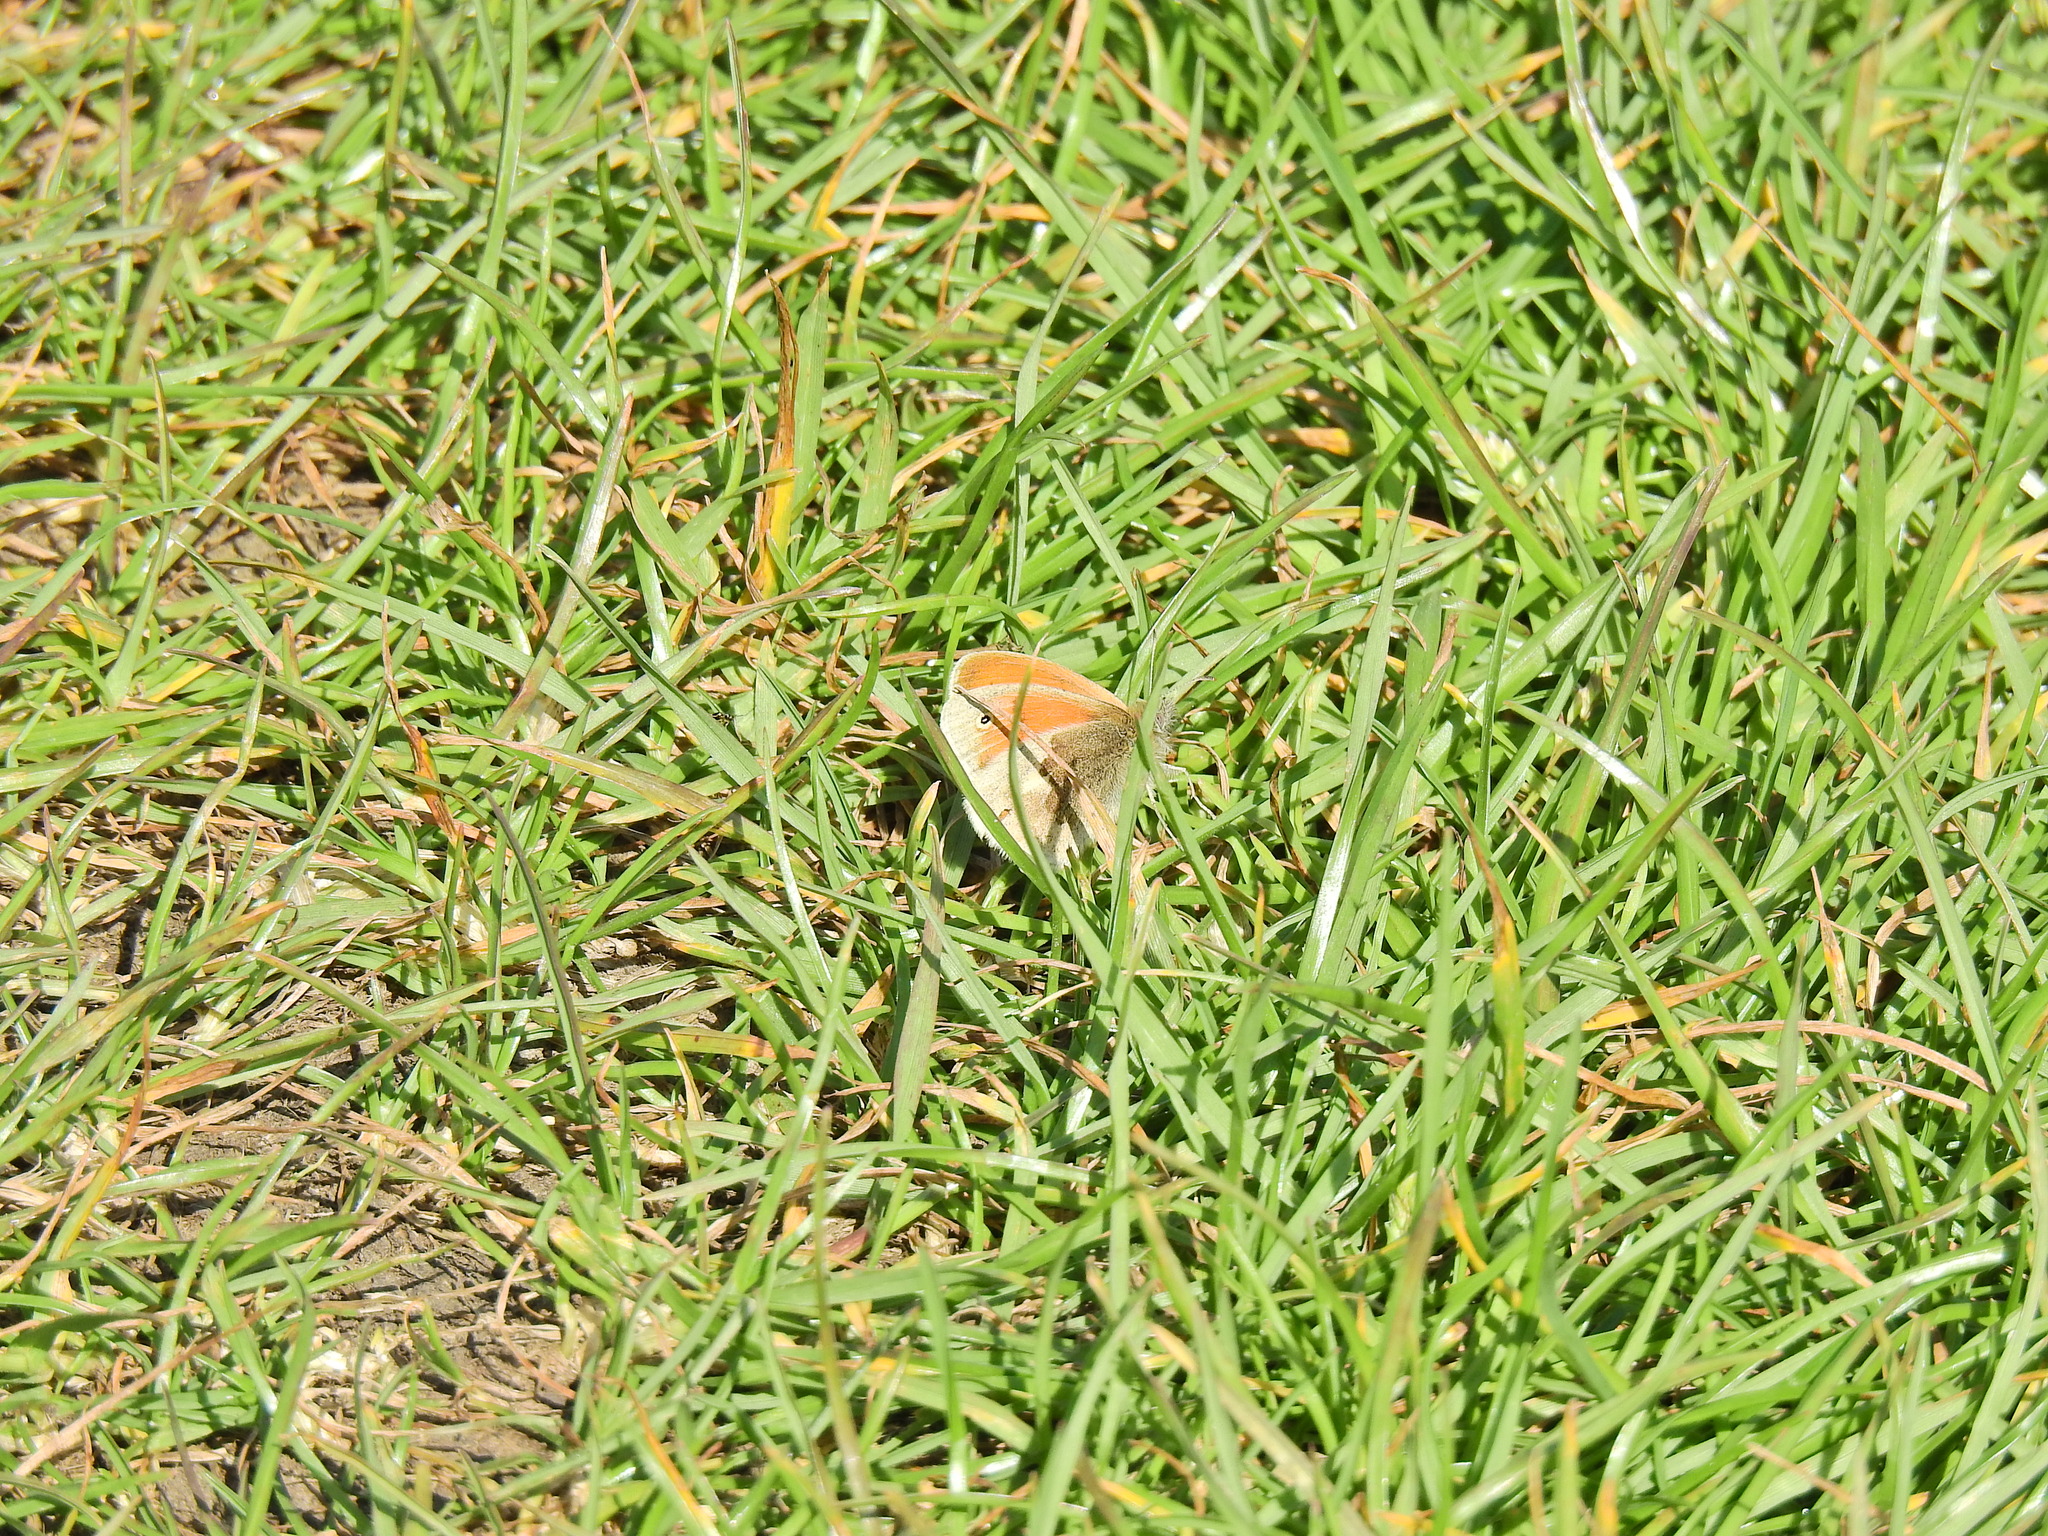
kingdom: Animalia
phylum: Arthropoda
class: Insecta
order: Lepidoptera
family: Nymphalidae
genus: Coenonympha
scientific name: Coenonympha pamphilus
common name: Small heath
